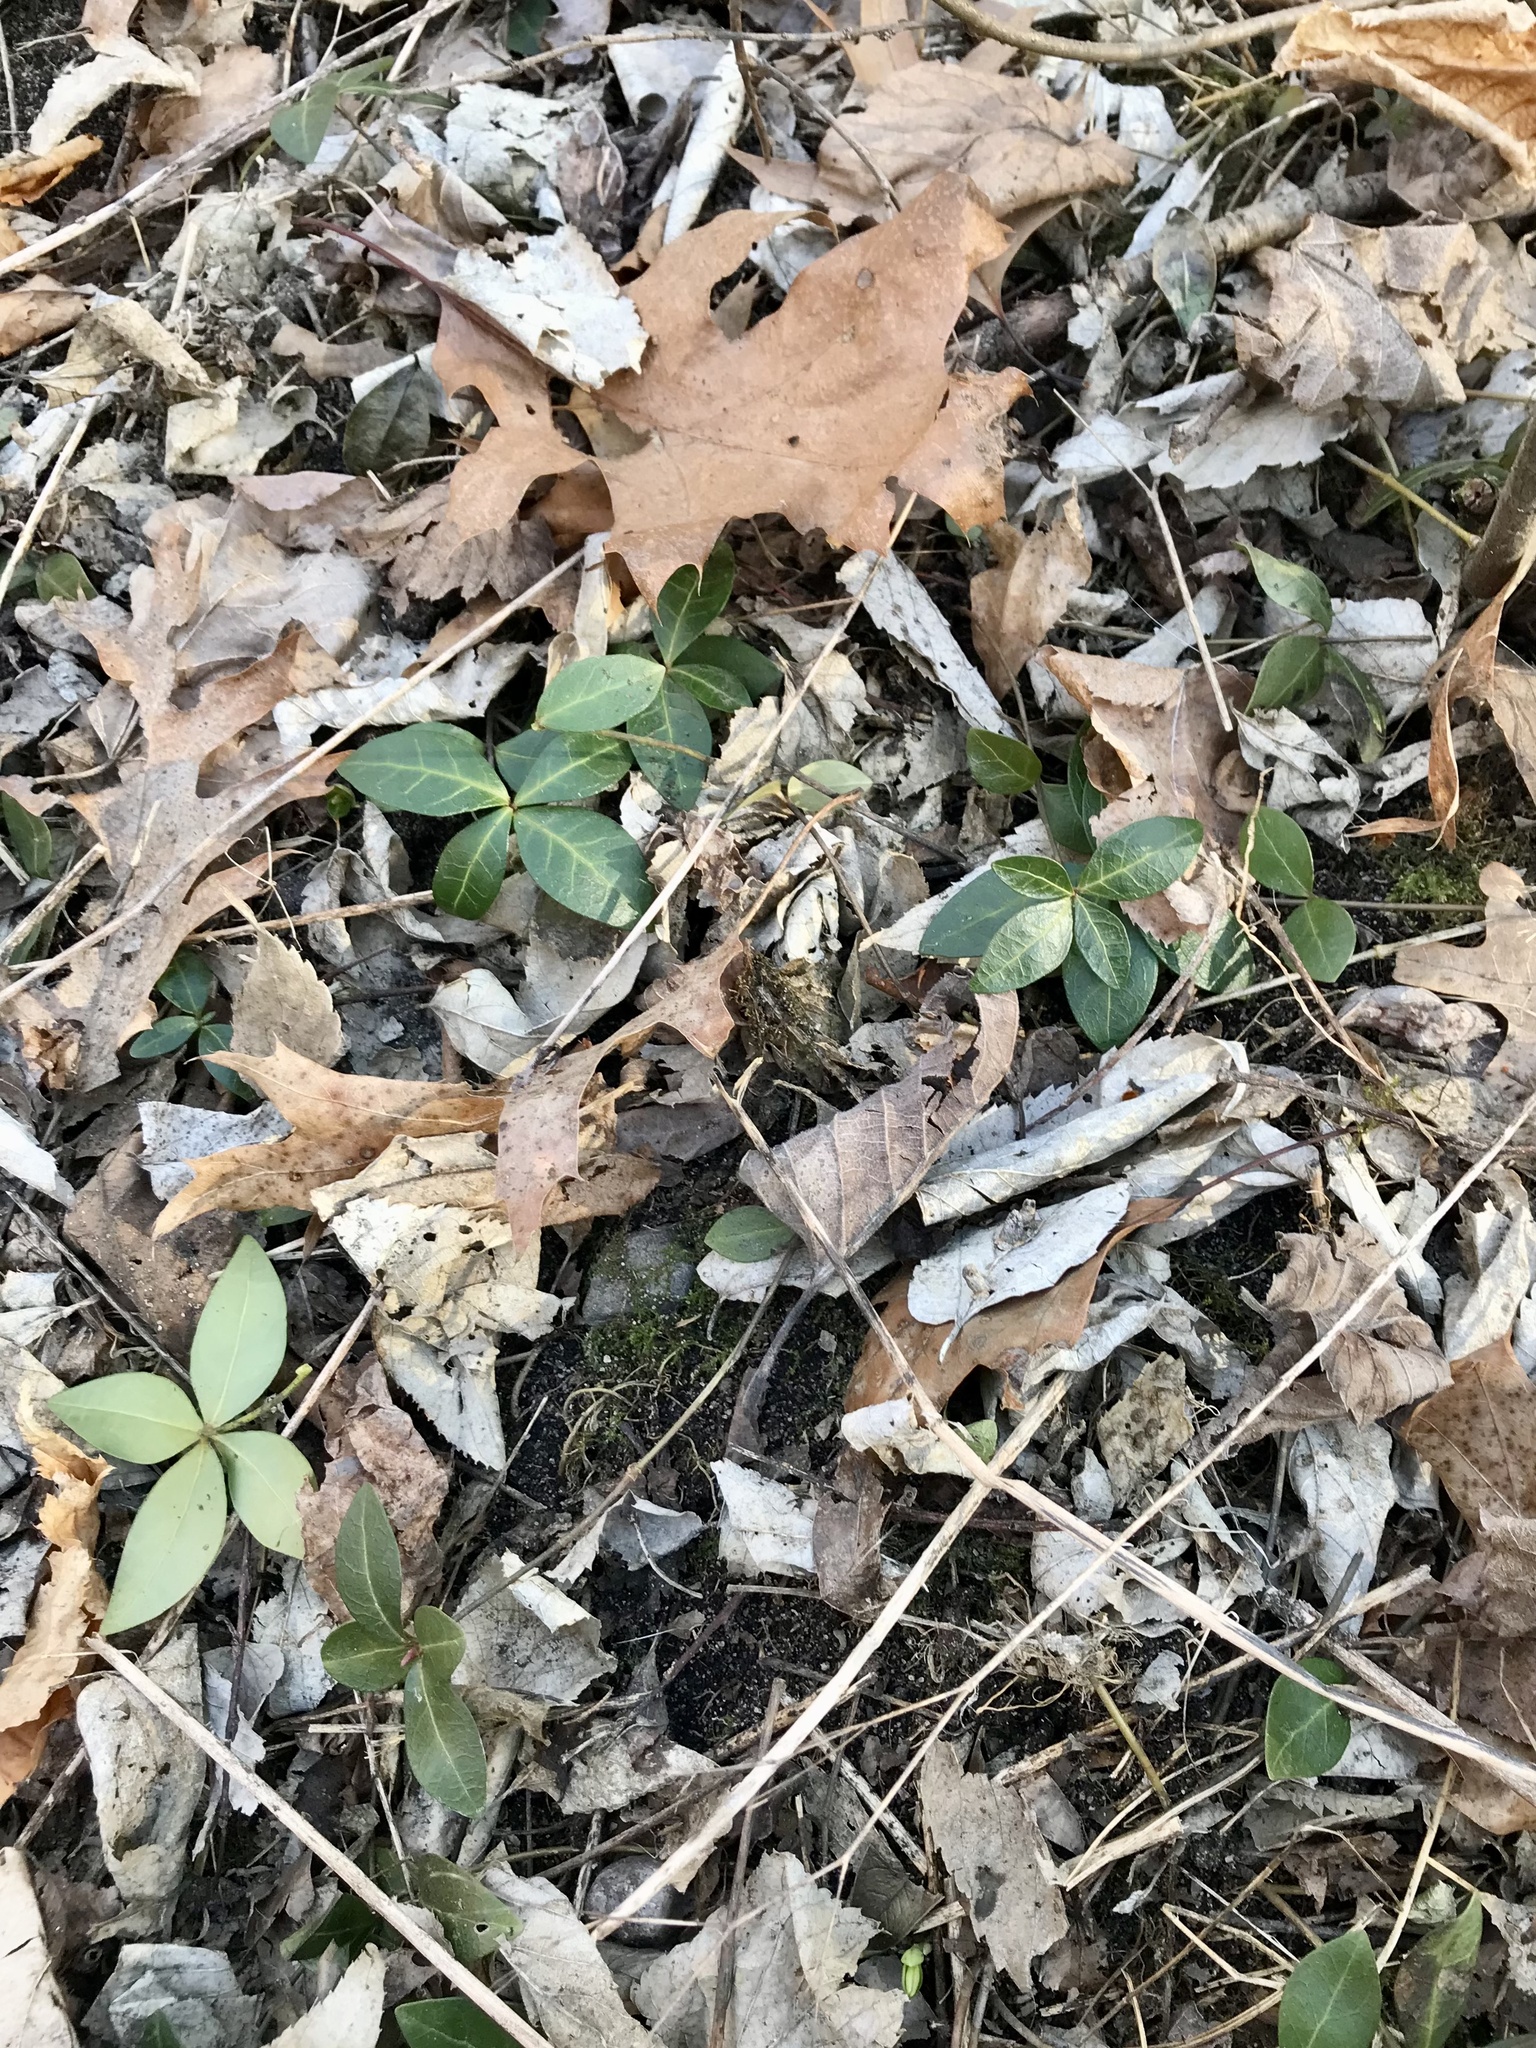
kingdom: Plantae
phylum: Tracheophyta
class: Magnoliopsida
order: Gentianales
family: Apocynaceae
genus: Vinca
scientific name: Vinca minor
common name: Lesser periwinkle
